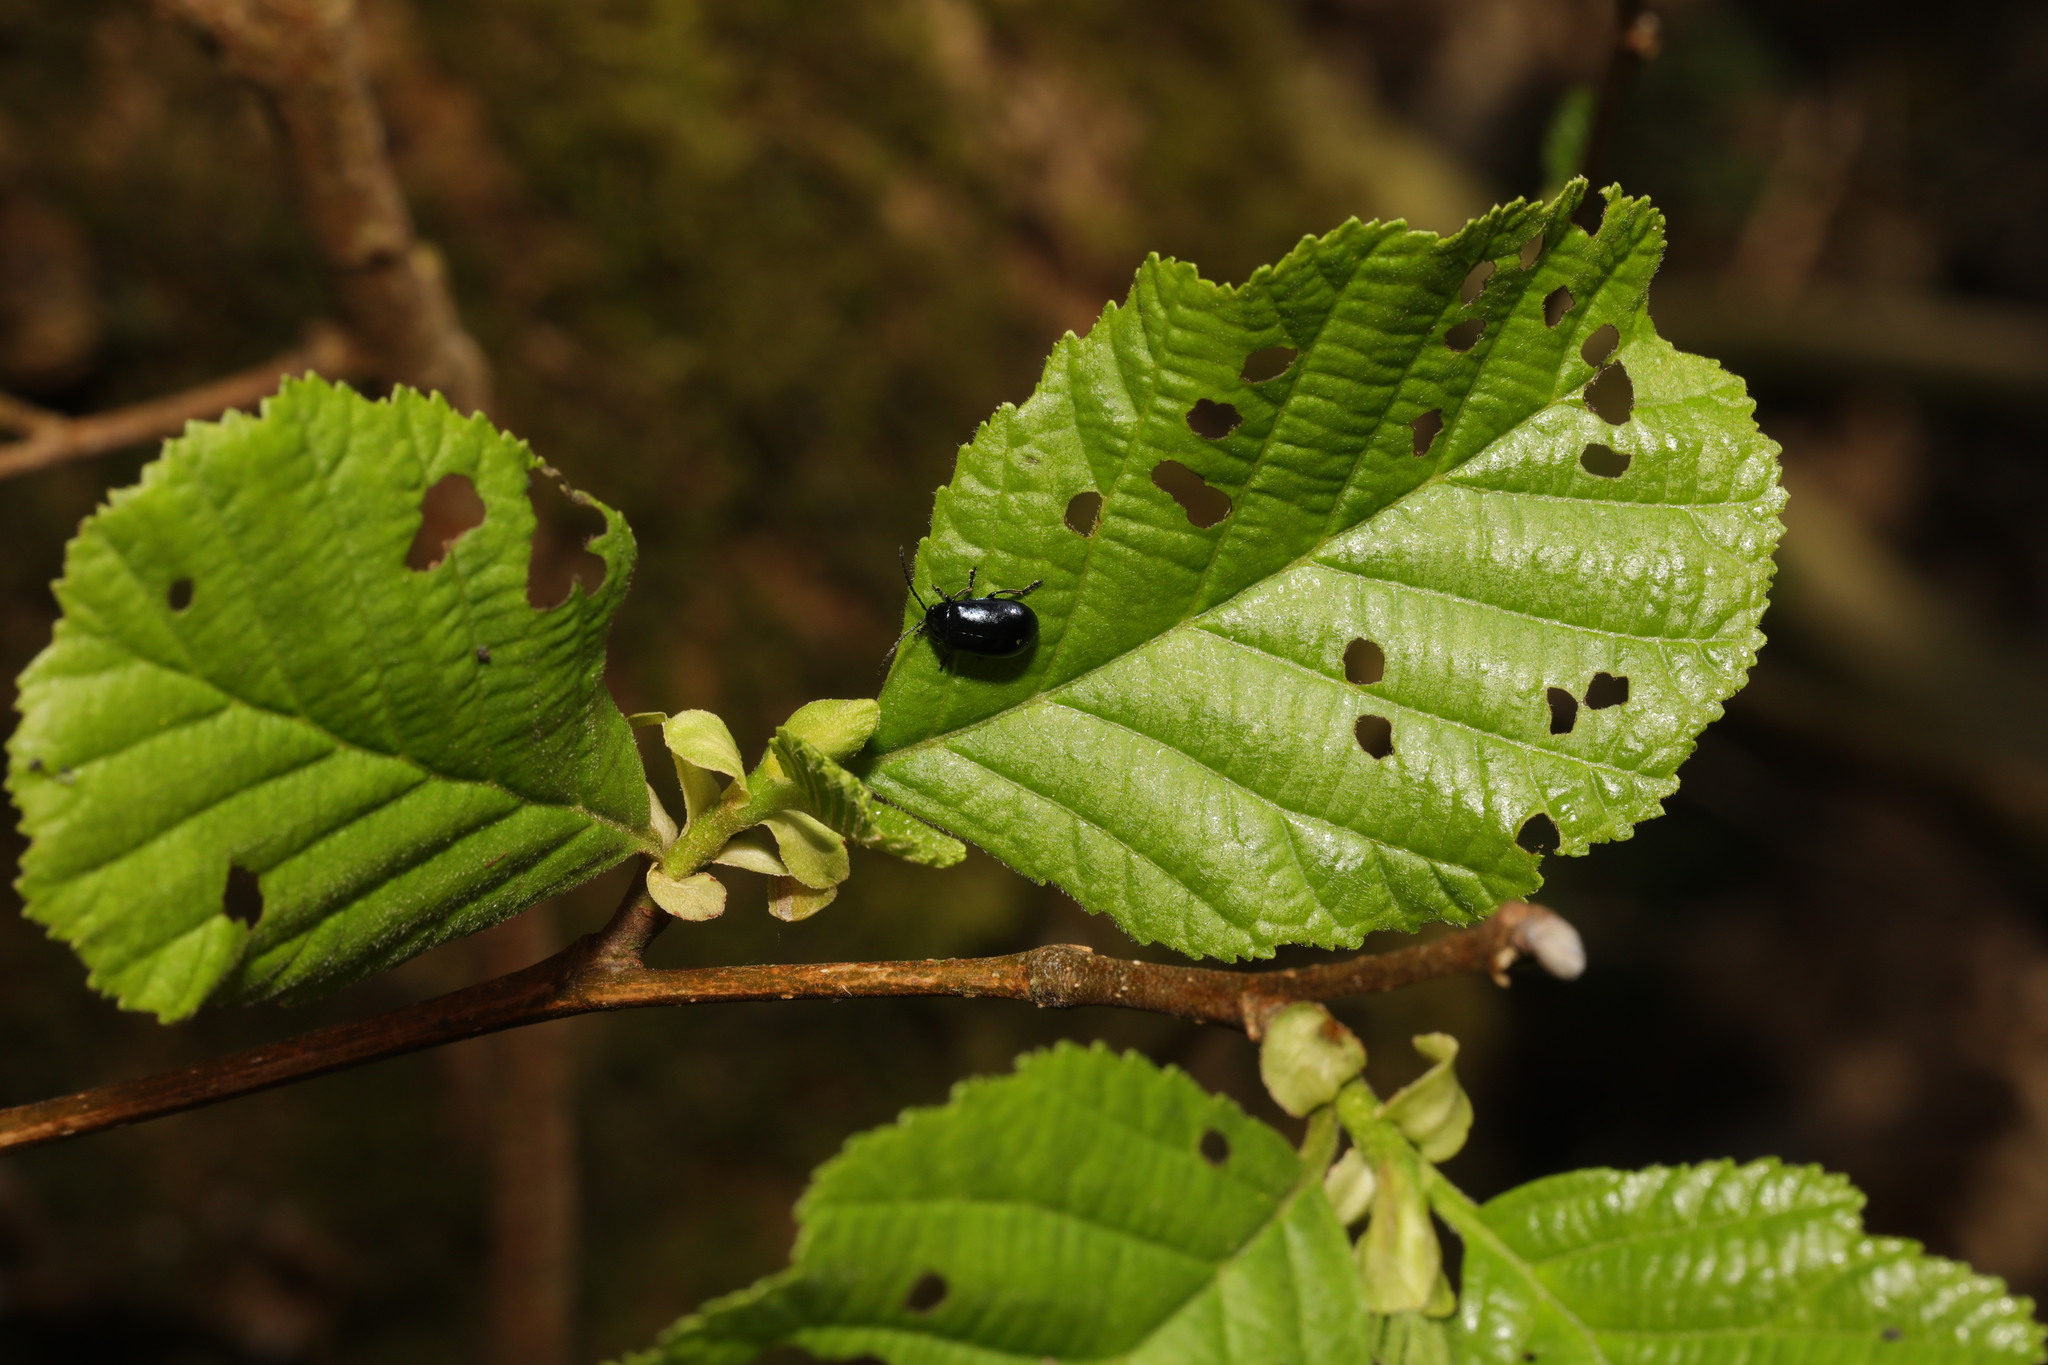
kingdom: Plantae
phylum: Tracheophyta
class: Magnoliopsida
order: Fagales
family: Betulaceae
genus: Alnus
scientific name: Alnus glutinosa
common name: Black alder
